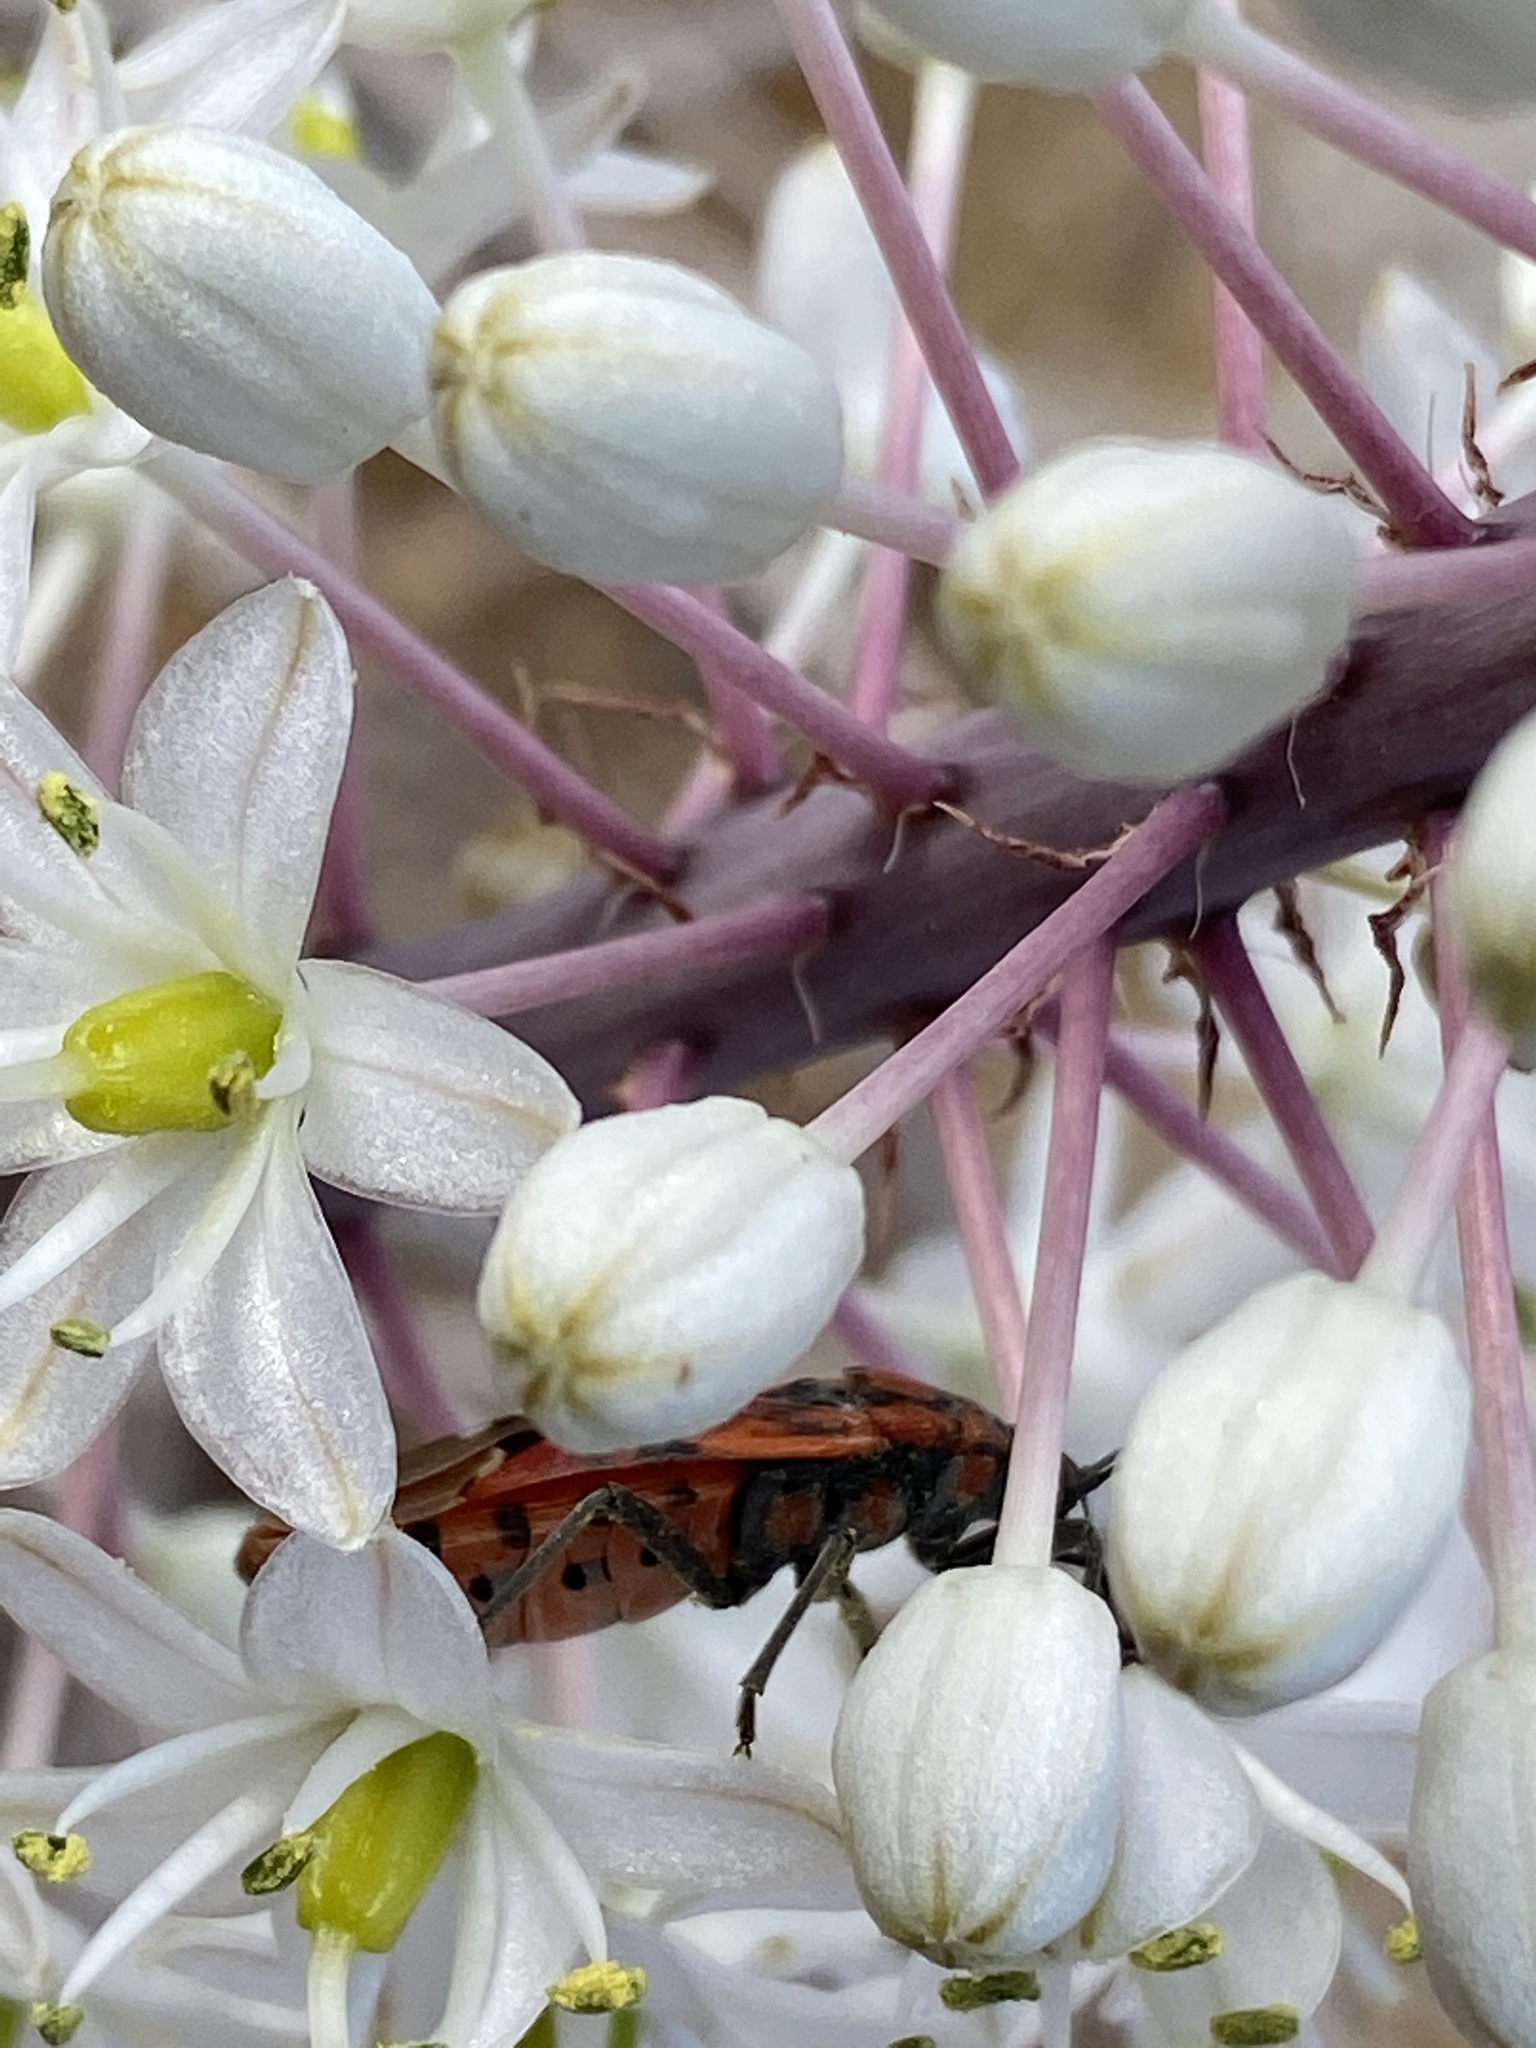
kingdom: Animalia
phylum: Arthropoda
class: Insecta
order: Hemiptera
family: Lygaeidae
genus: Spilostethus
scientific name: Spilostethus pandurus
